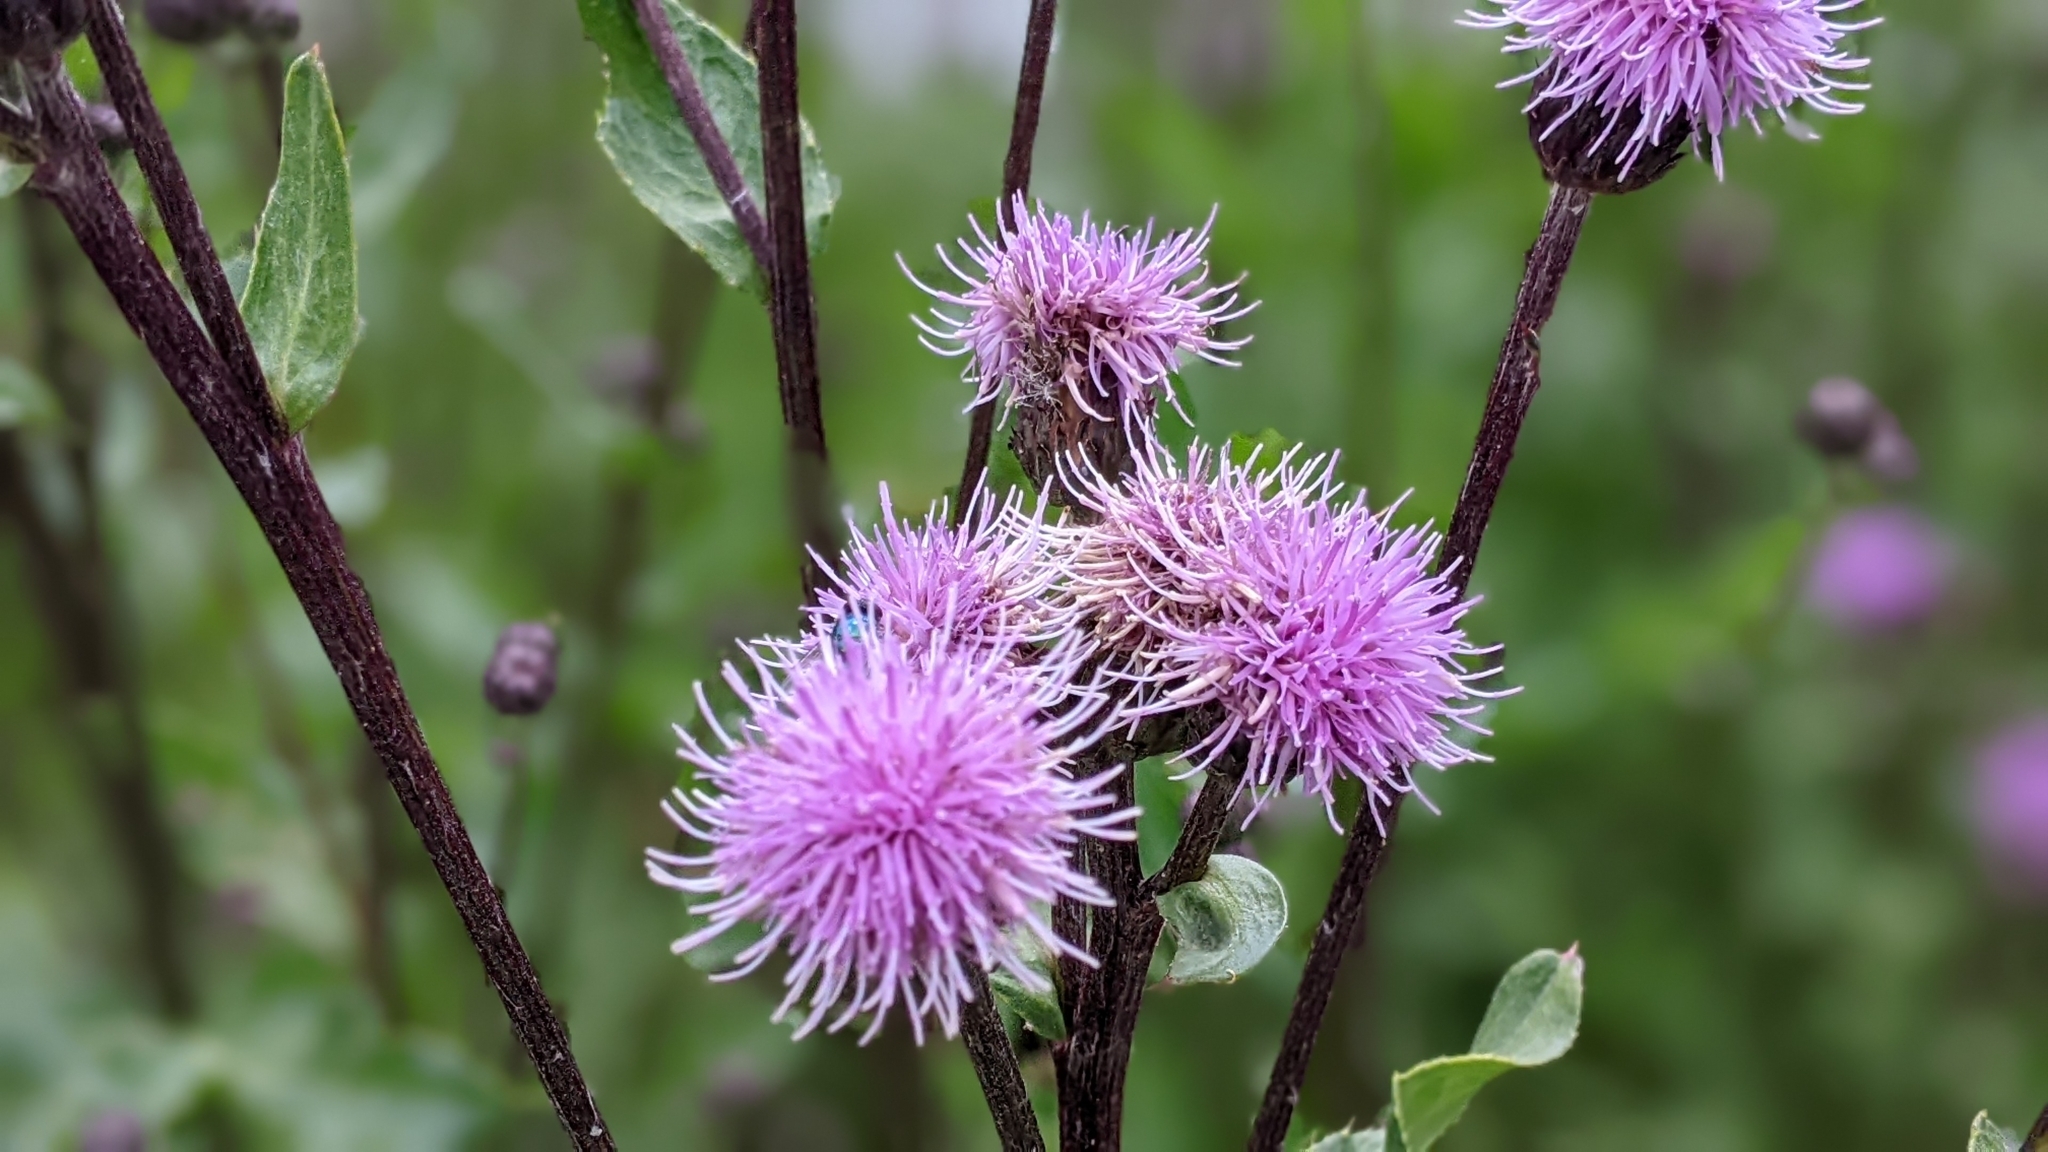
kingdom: Plantae
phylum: Tracheophyta
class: Magnoliopsida
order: Asterales
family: Asteraceae
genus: Cirsium
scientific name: Cirsium arvense
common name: Creeping thistle
